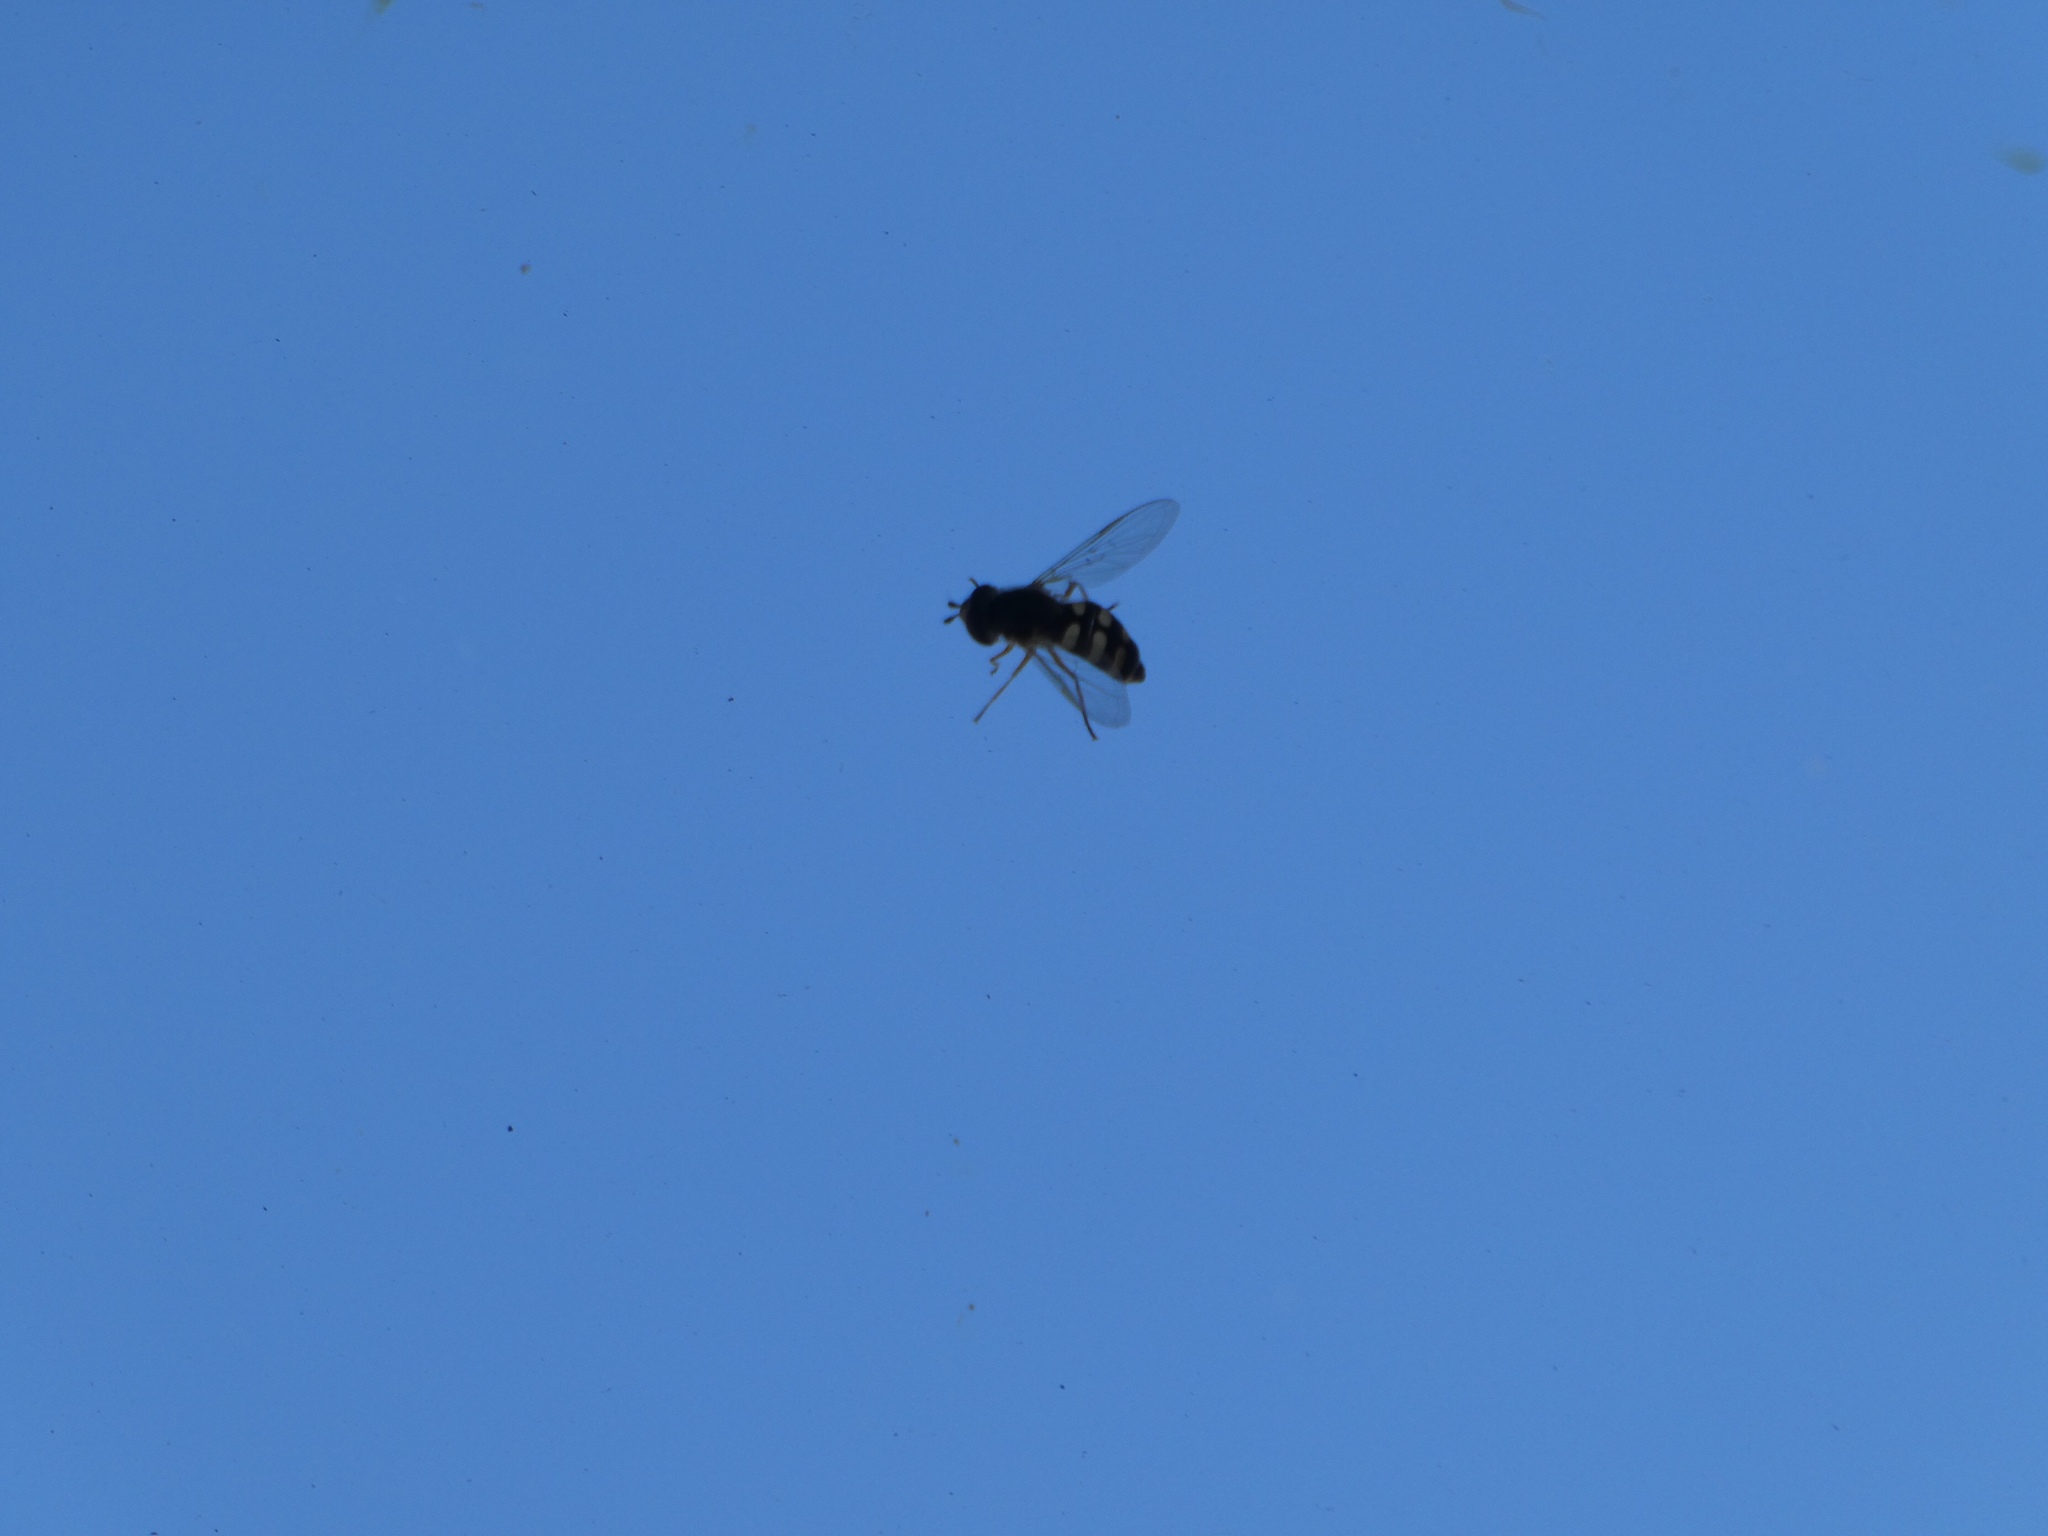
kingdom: Animalia
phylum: Arthropoda
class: Insecta
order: Diptera
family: Syrphidae
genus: Eupeodes
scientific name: Eupeodes
